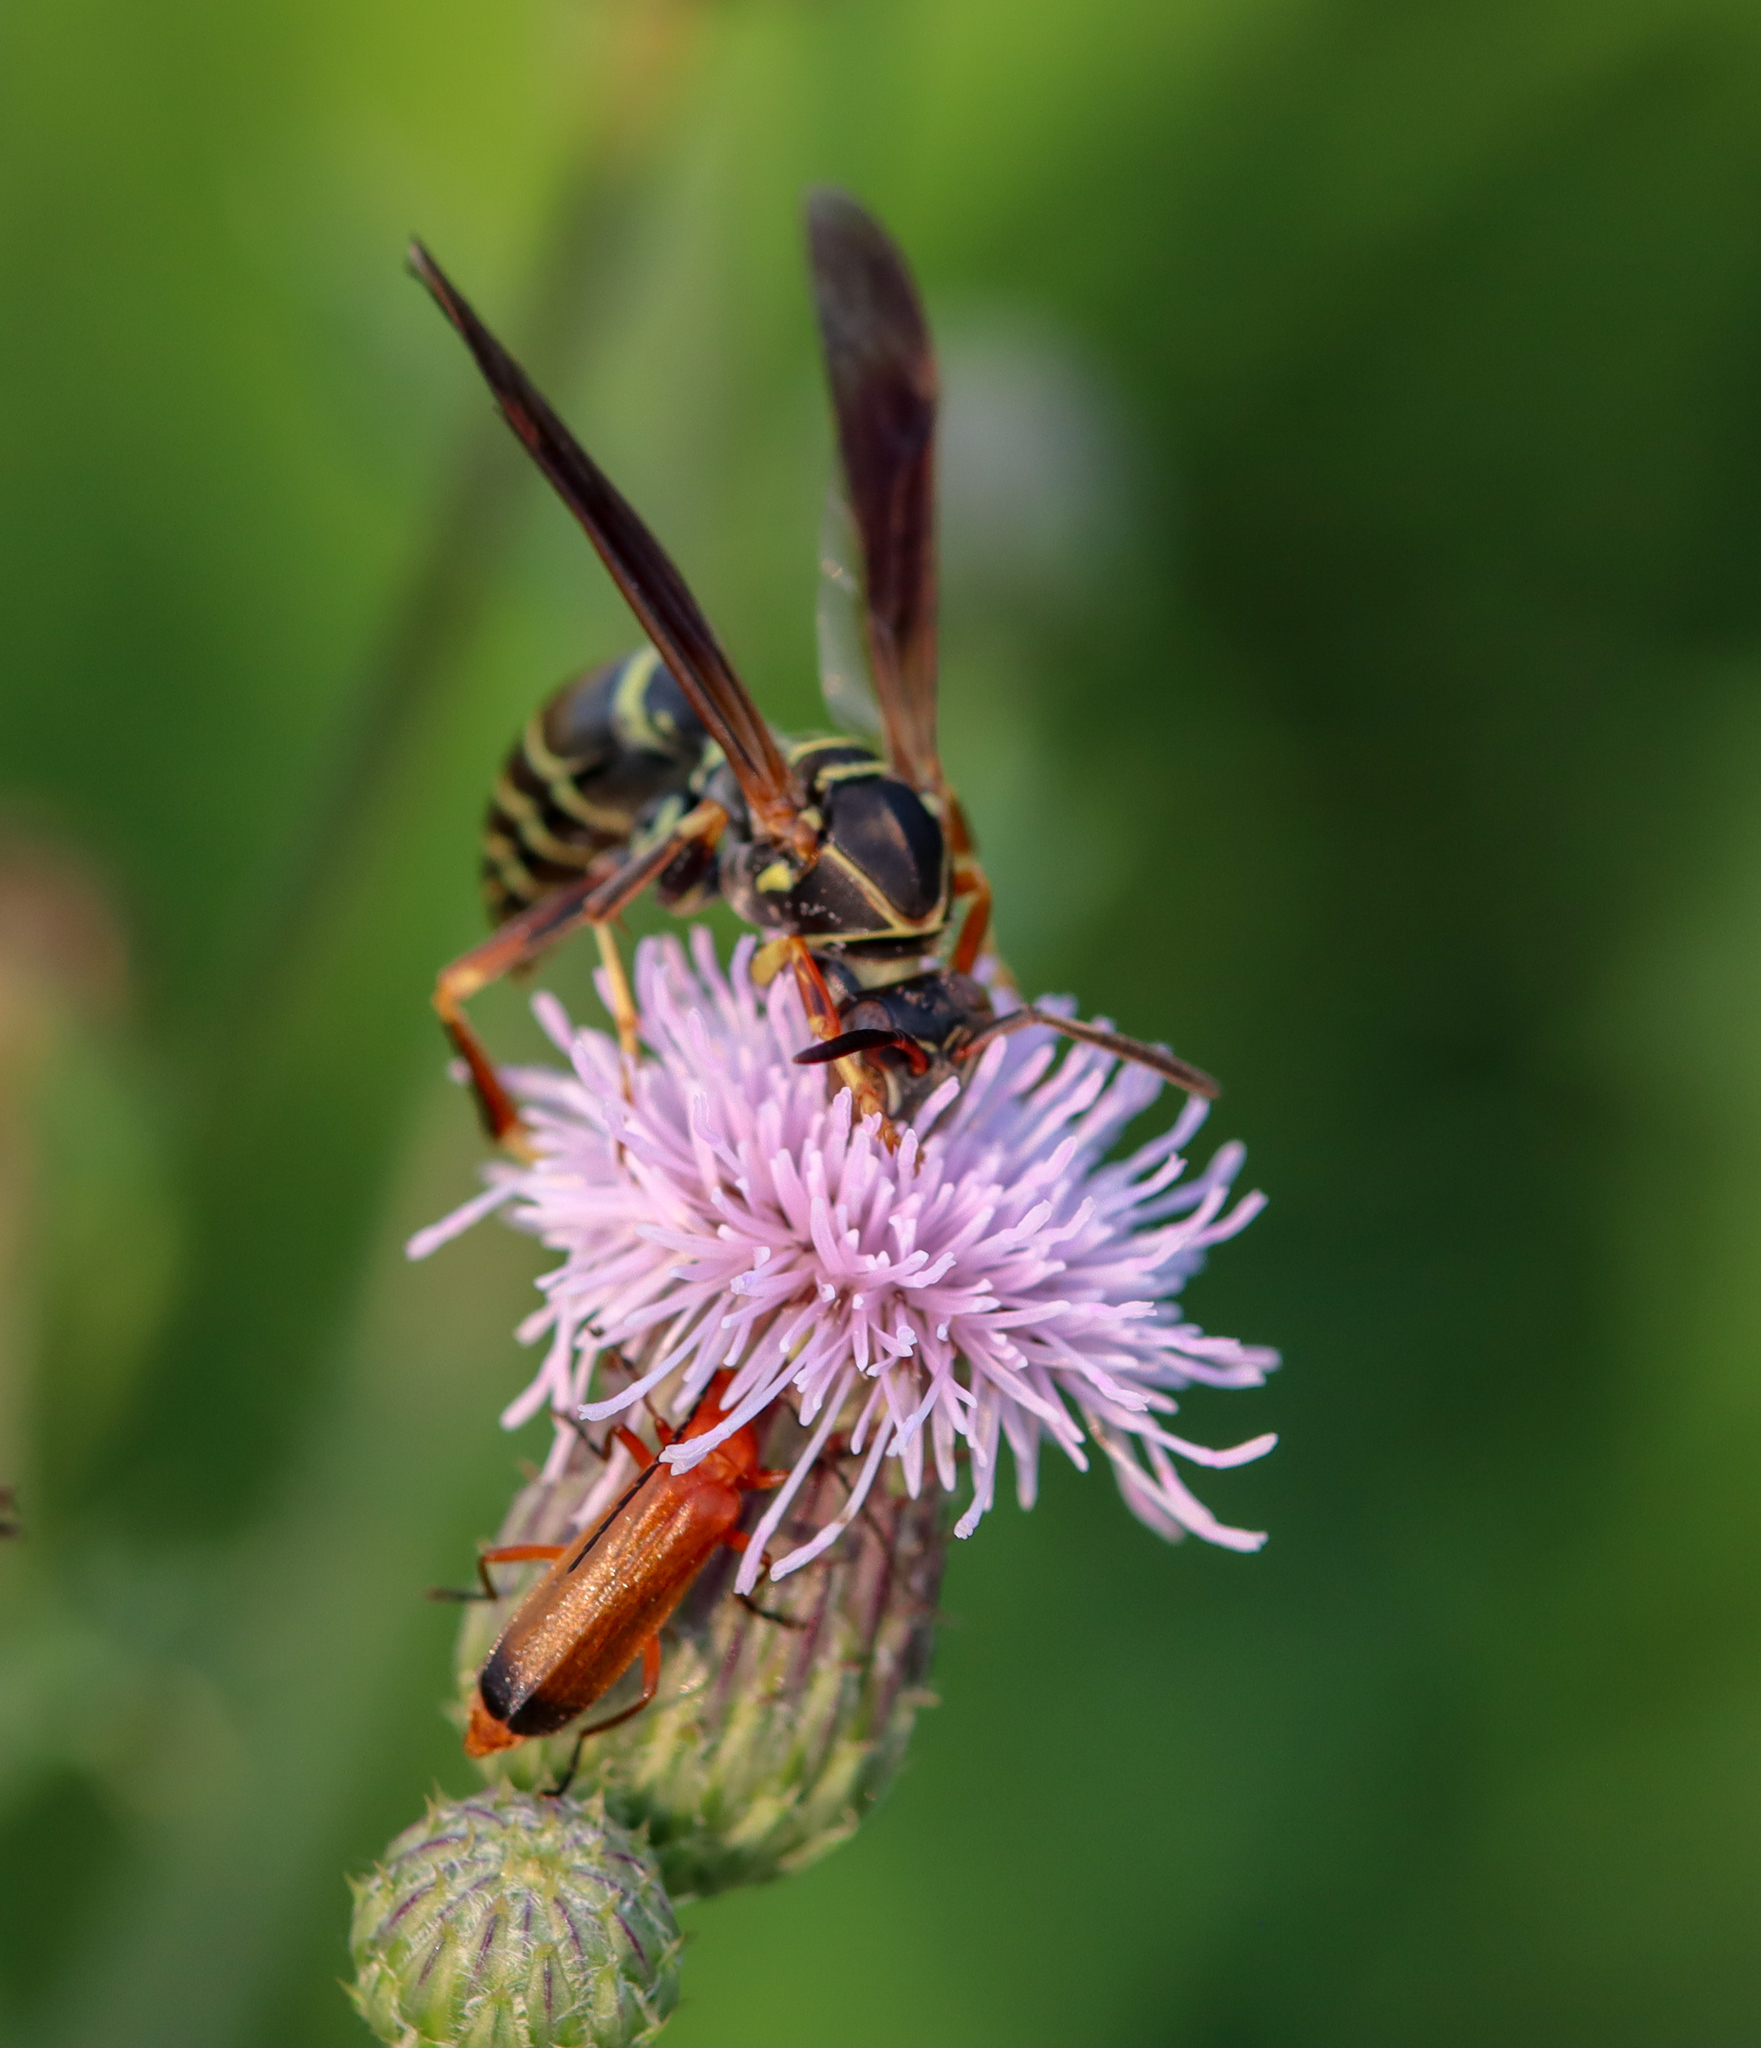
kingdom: Animalia
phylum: Arthropoda
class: Insecta
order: Hymenoptera
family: Eumenidae
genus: Polistes
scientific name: Polistes fuscatus
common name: Dark paper wasp
